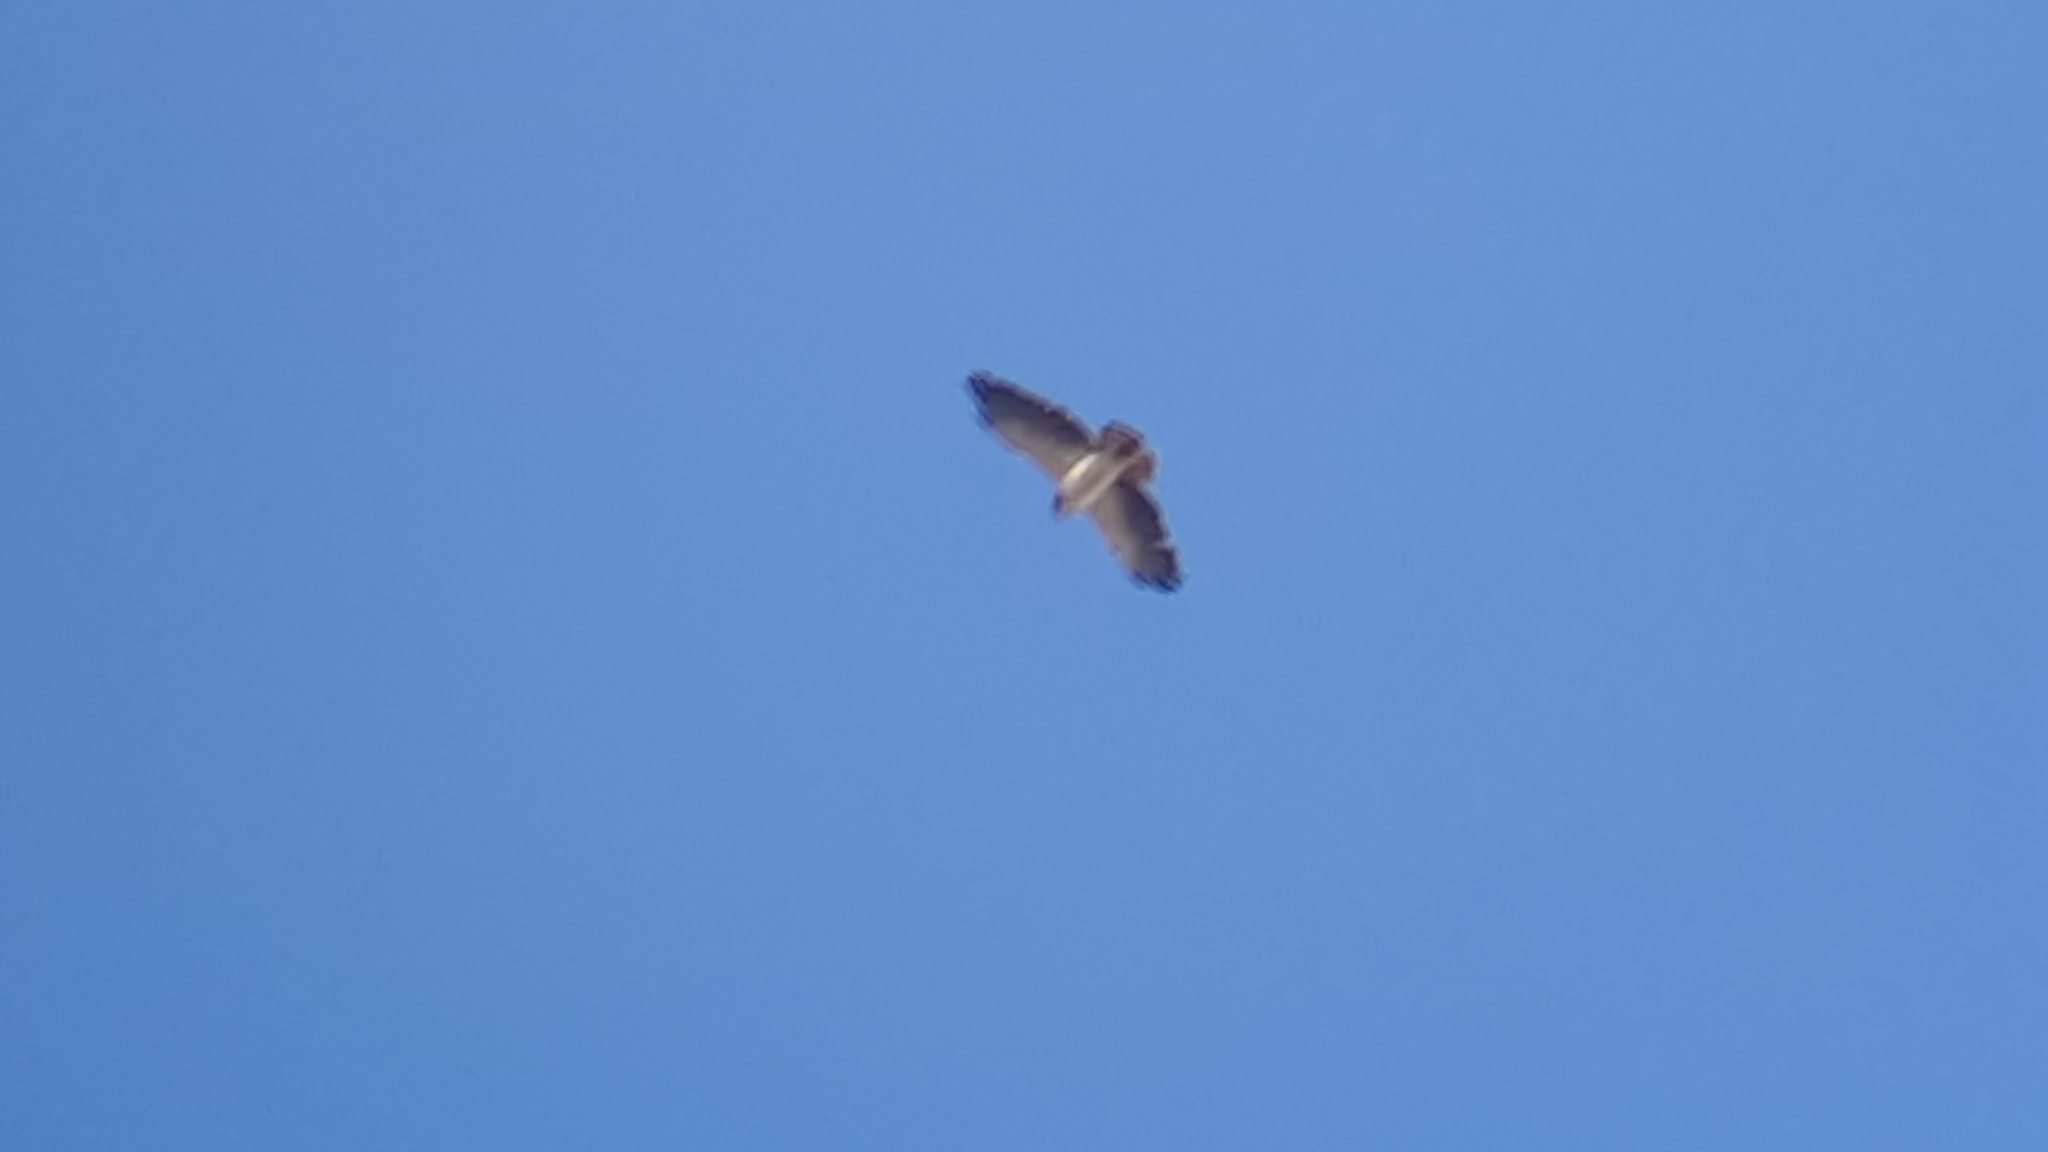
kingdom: Animalia
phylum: Chordata
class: Aves
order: Accipitriformes
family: Accipitridae
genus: Buteo
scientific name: Buteo brachyurus
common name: Short-tailed hawk
